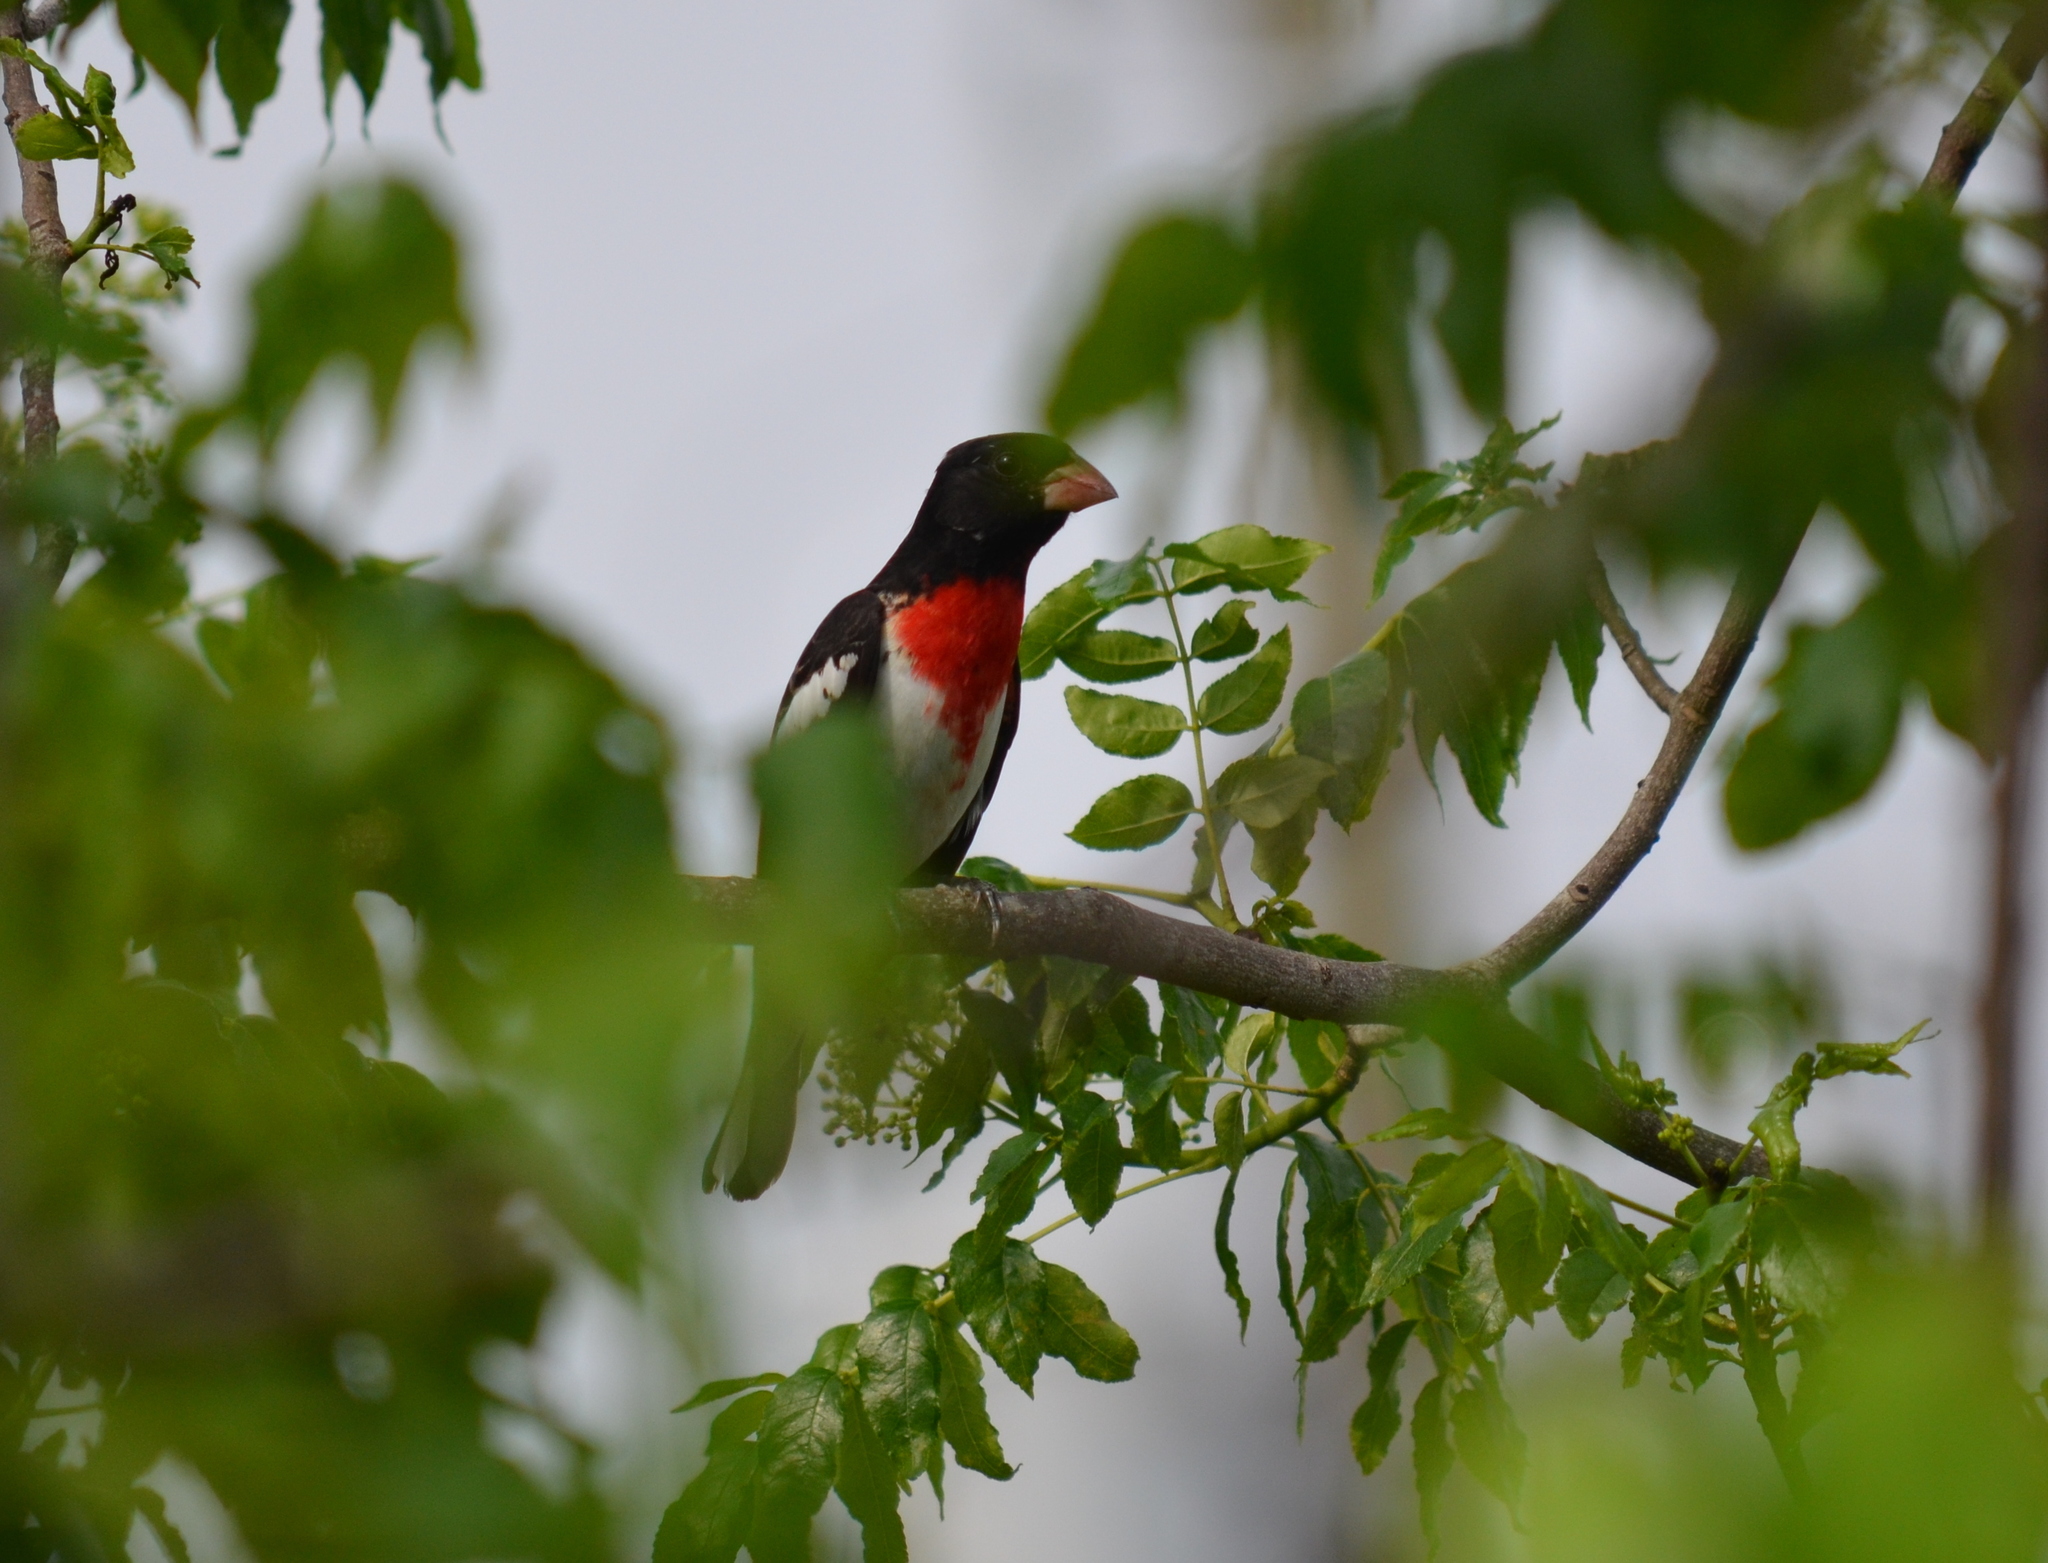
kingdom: Animalia
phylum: Chordata
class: Aves
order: Passeriformes
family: Cardinalidae
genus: Pheucticus
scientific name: Pheucticus ludovicianus
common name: Rose-breasted grosbeak
